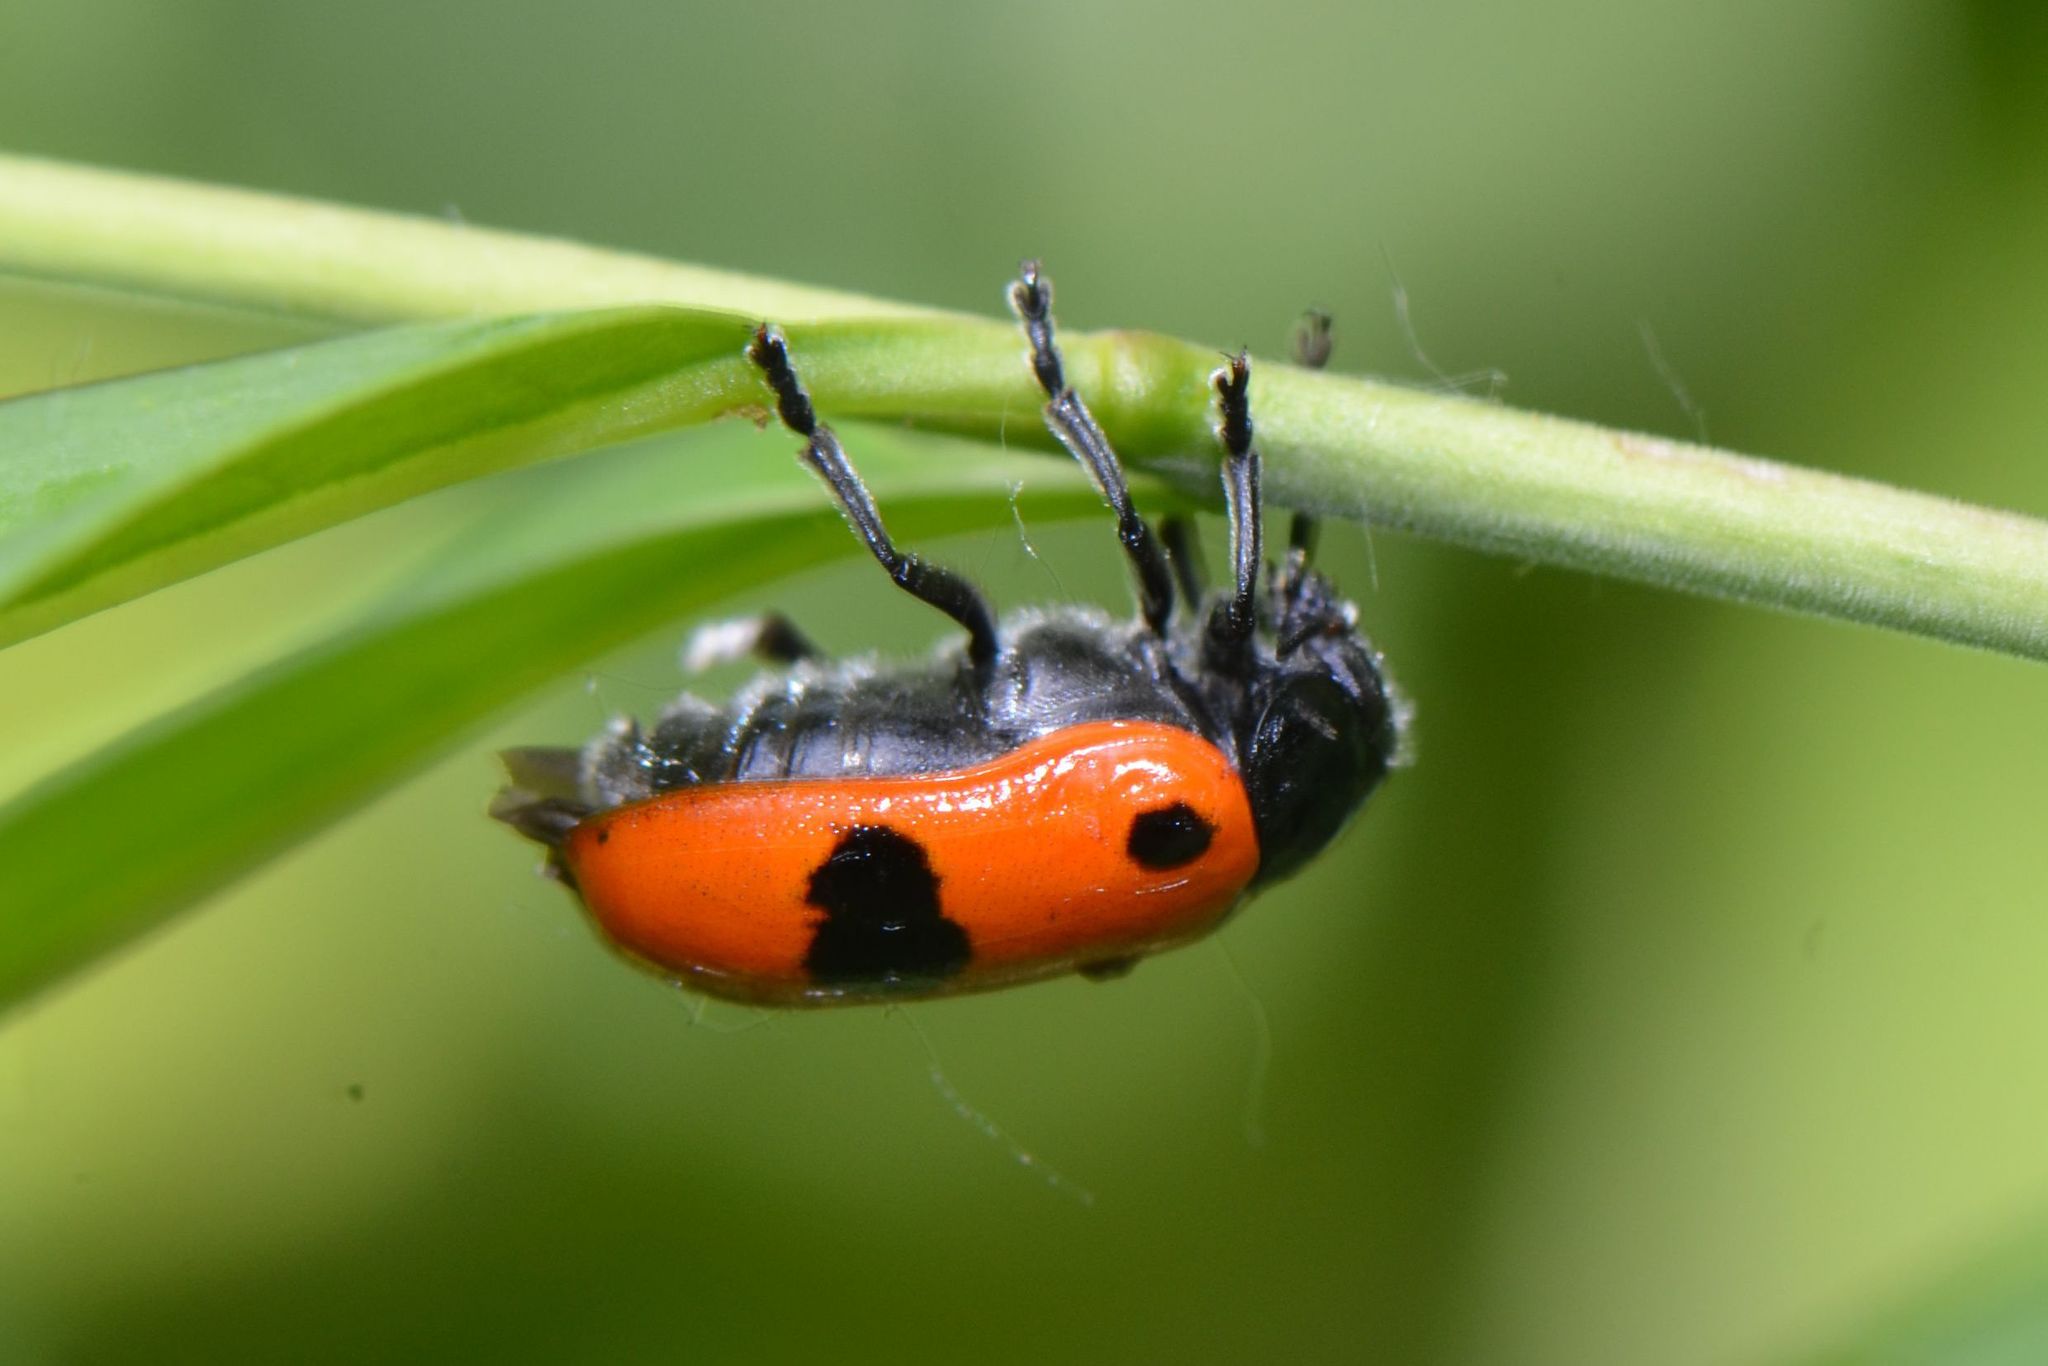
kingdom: Animalia
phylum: Arthropoda
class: Insecta
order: Coleoptera
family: Chrysomelidae
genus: Clytra
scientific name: Clytra laeviuscula
